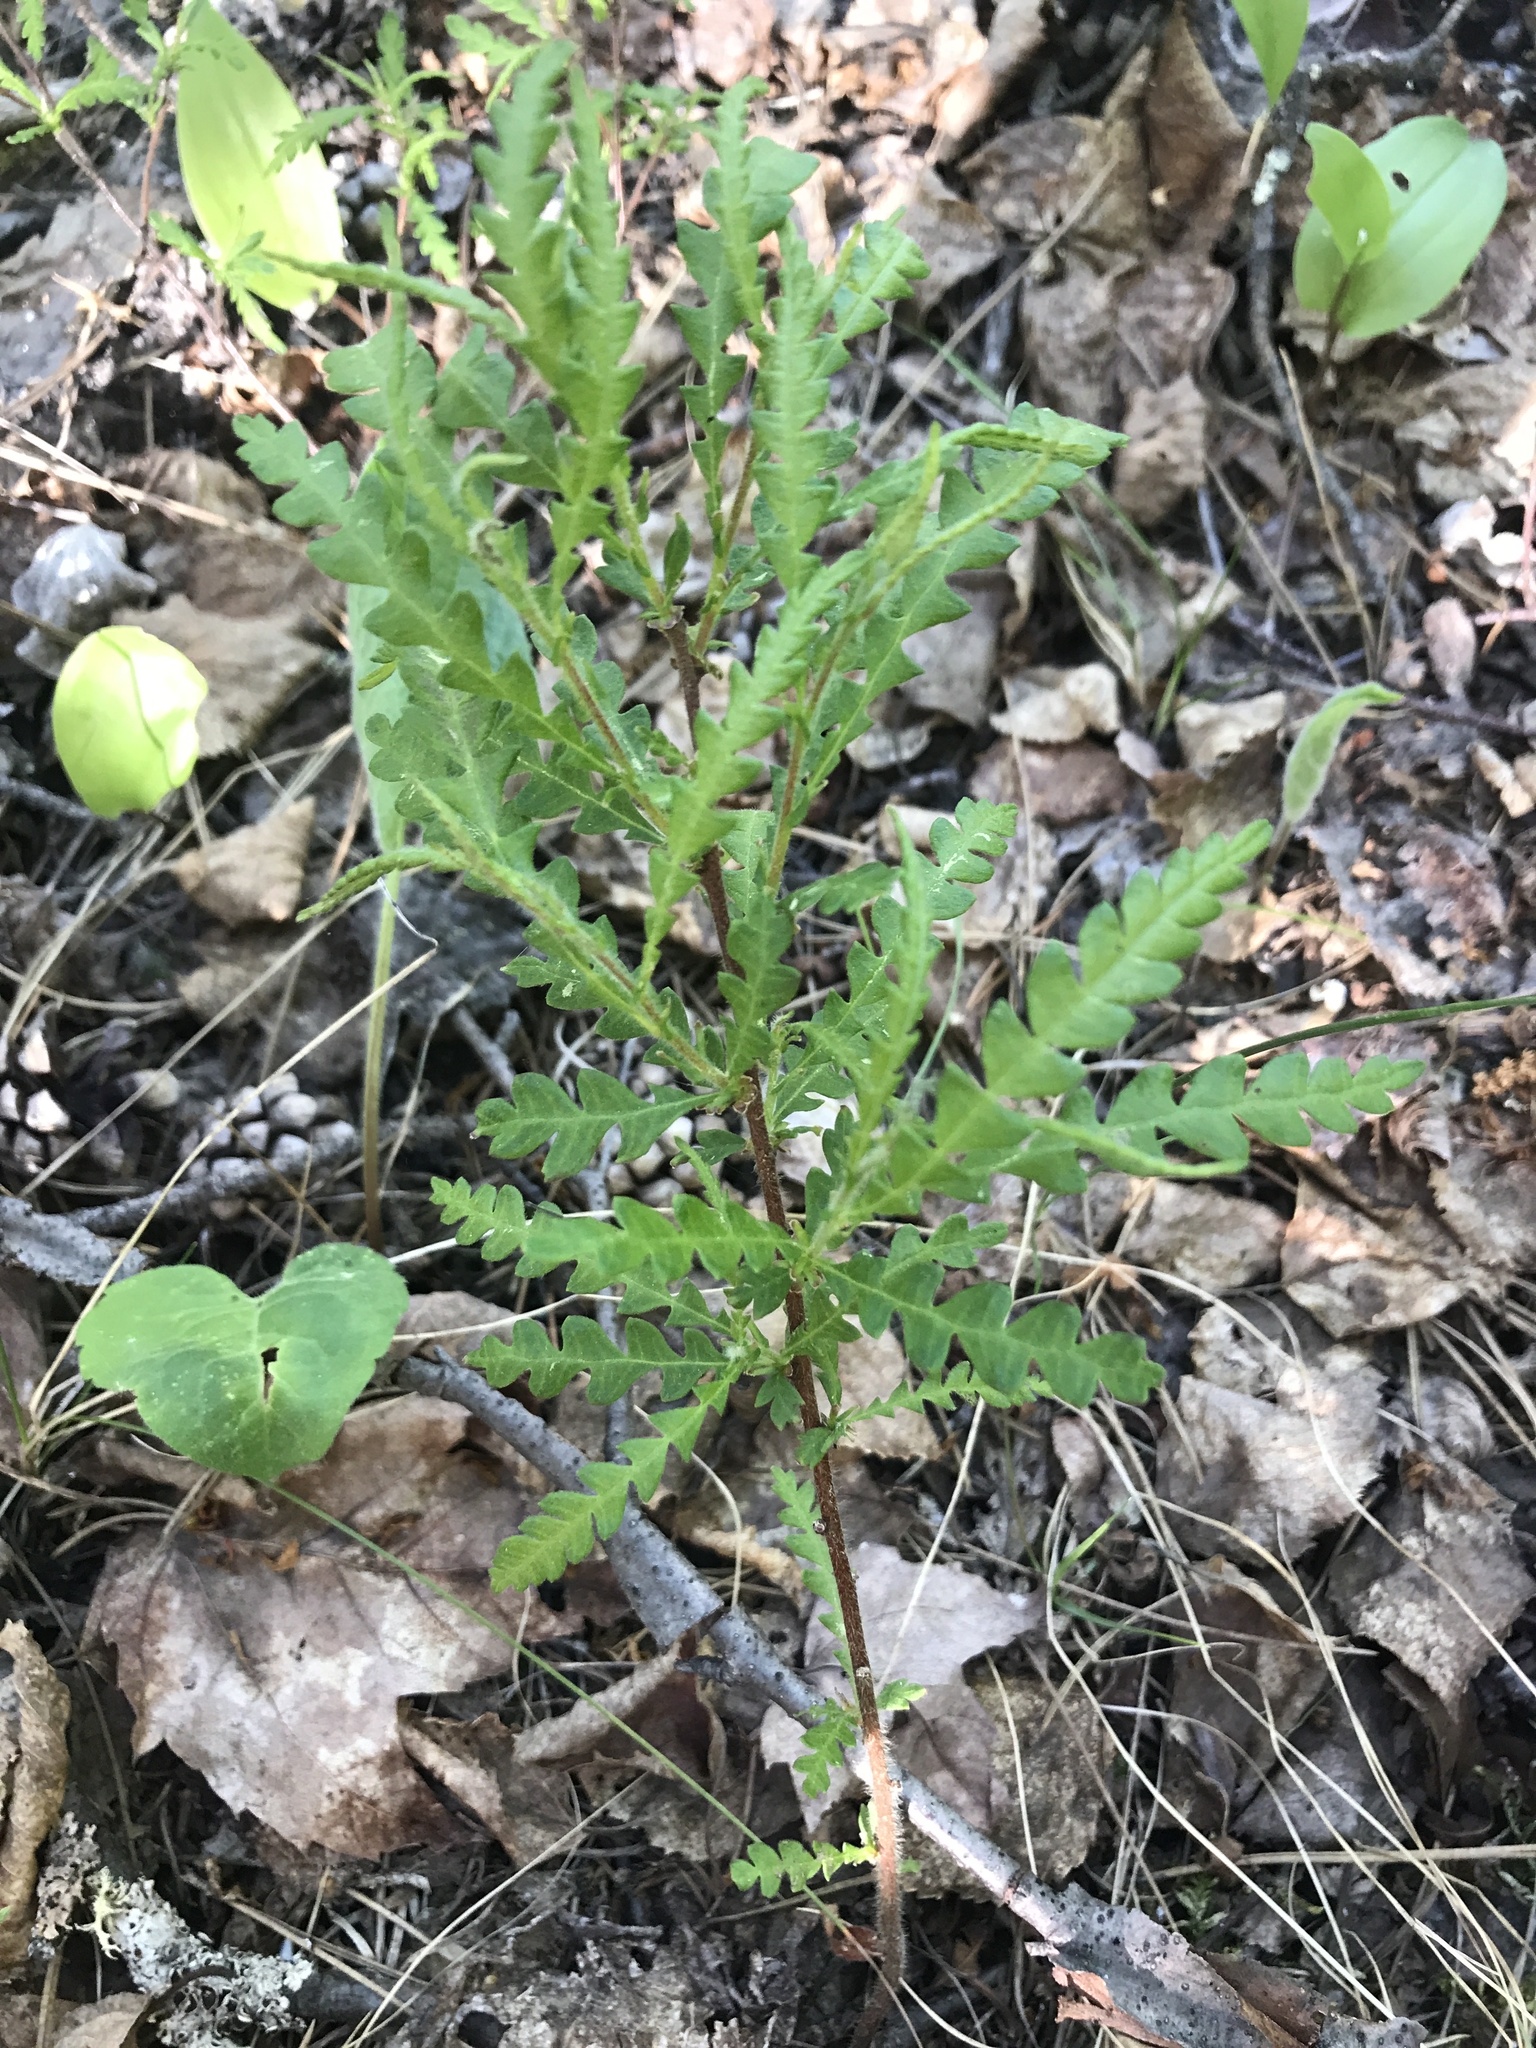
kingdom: Plantae
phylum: Tracheophyta
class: Magnoliopsida
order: Fagales
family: Myricaceae
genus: Comptonia
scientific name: Comptonia peregrina
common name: Sweet-fern
